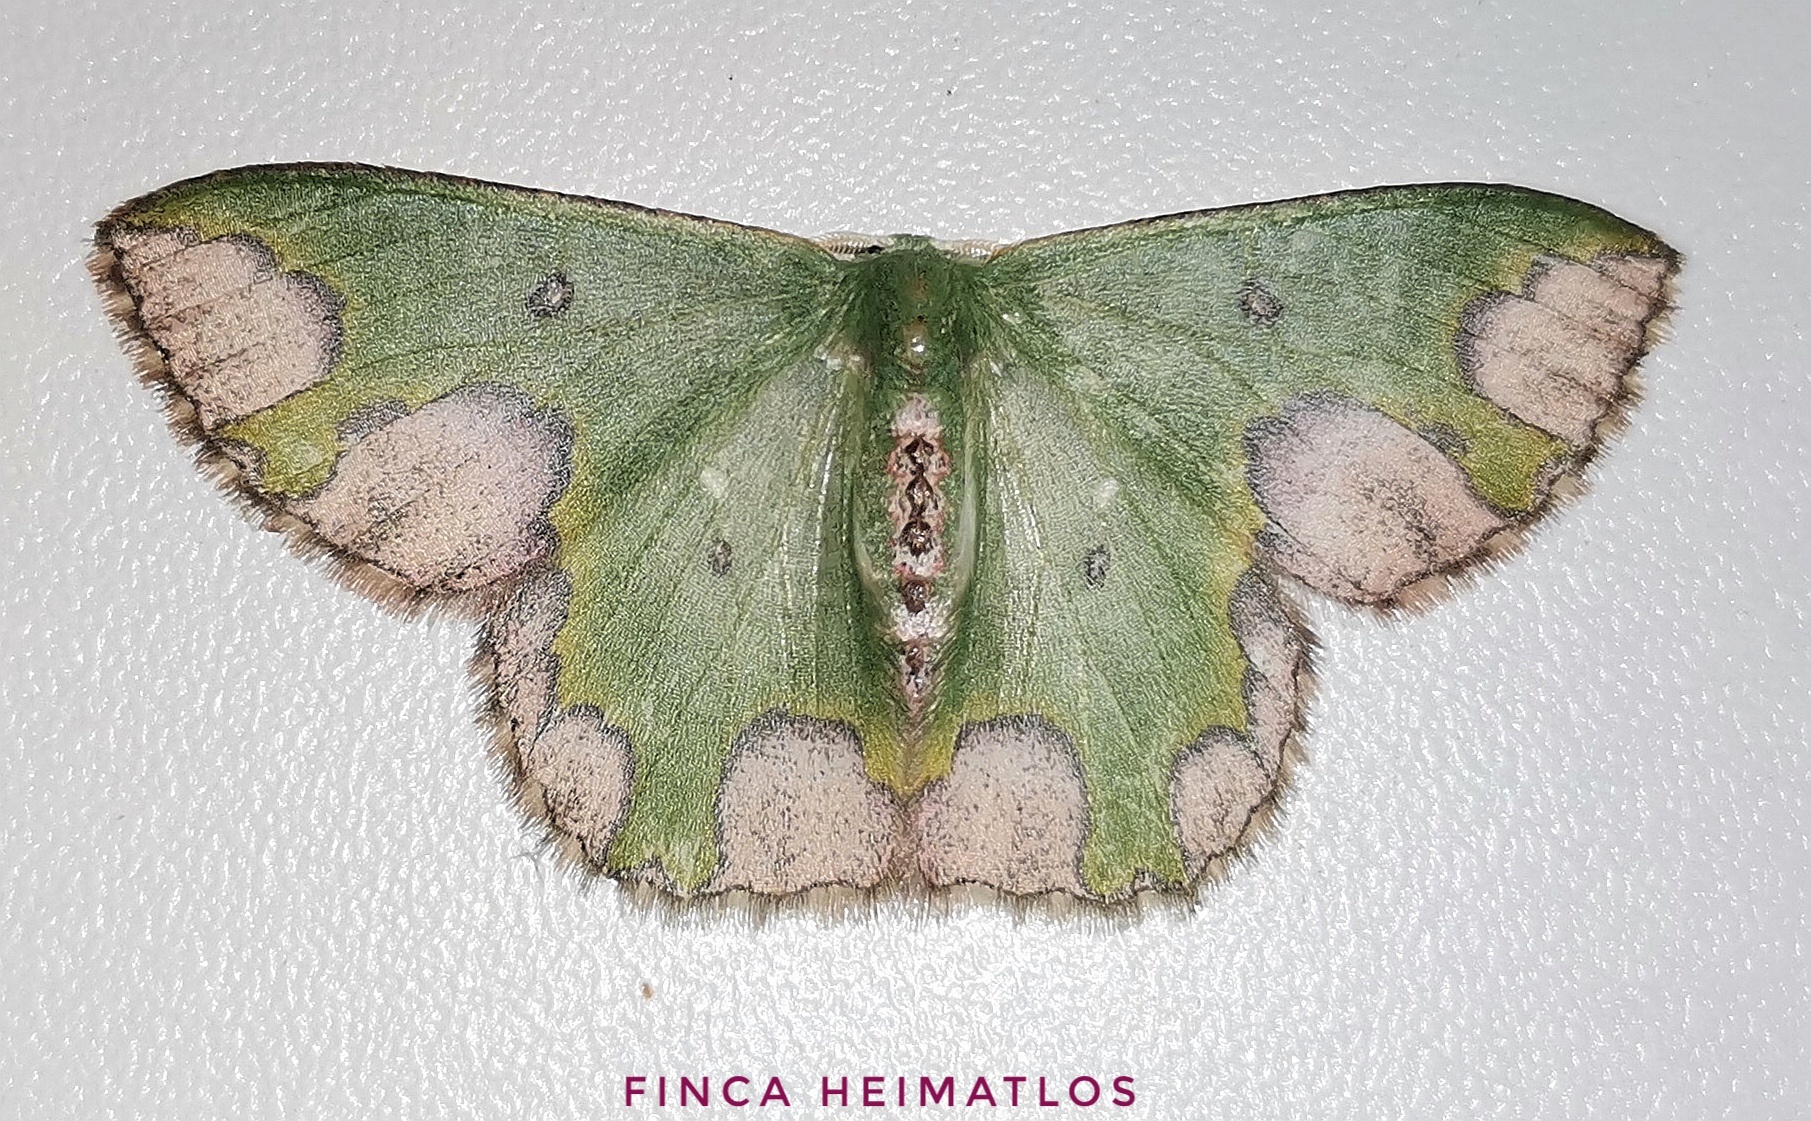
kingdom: Animalia
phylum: Arthropoda
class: Insecta
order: Lepidoptera
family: Geometridae
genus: Oospila
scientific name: Oospila carnelunata
